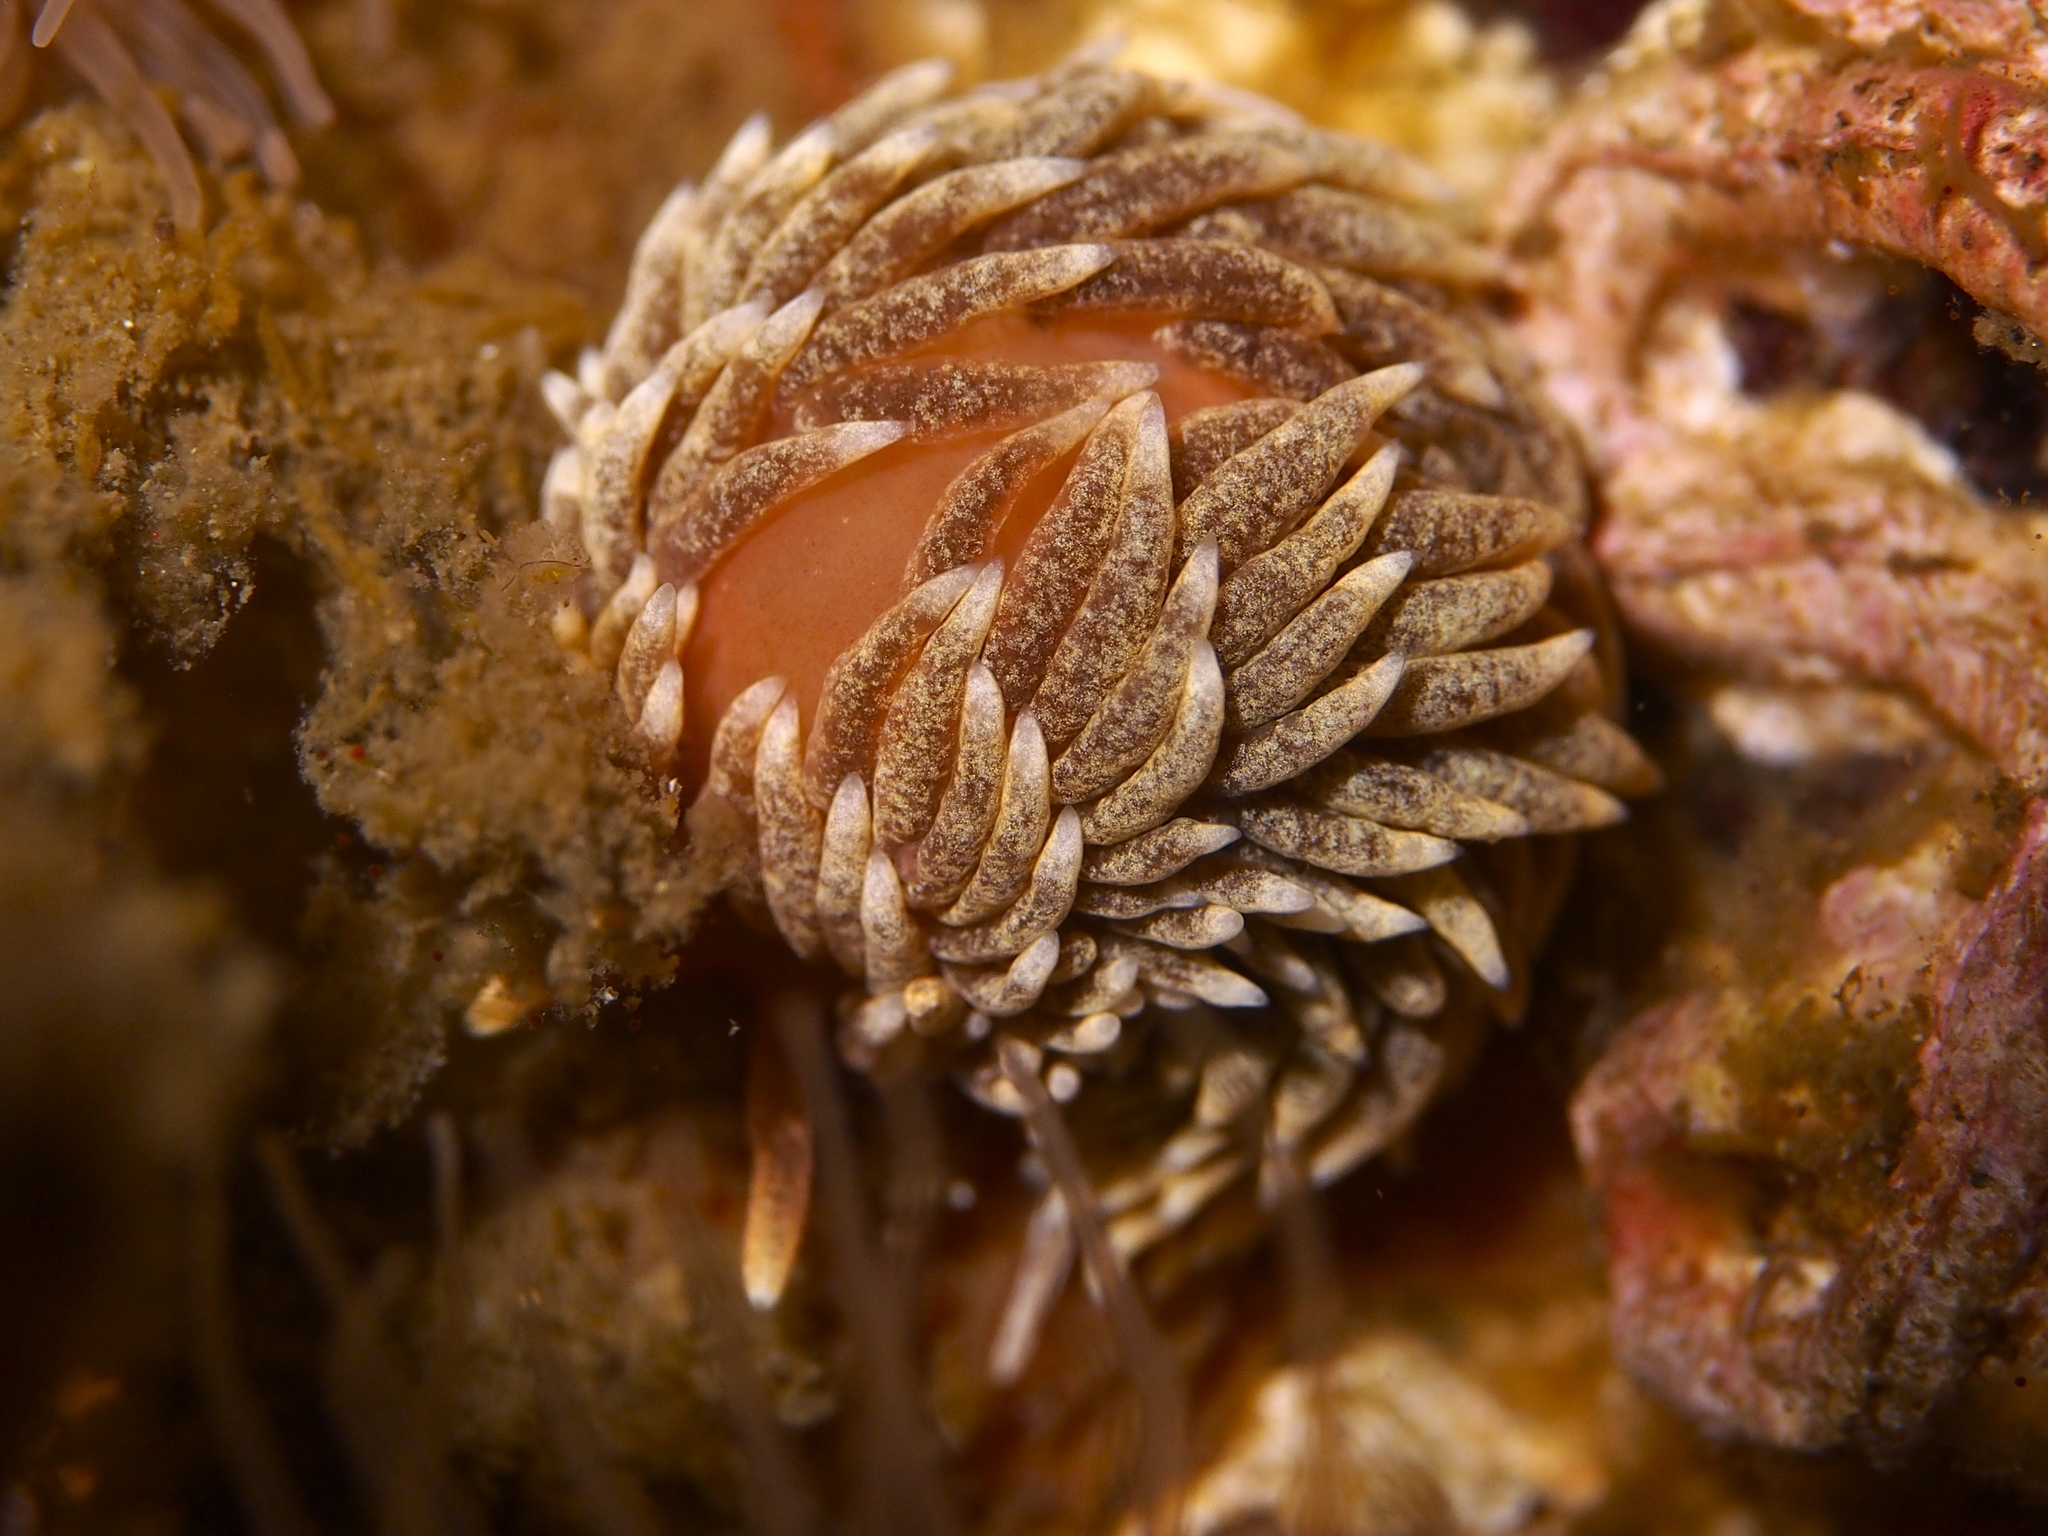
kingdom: Animalia
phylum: Mollusca
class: Gastropoda
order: Nudibranchia
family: Aeolidiidae
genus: Aeolidiella
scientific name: Aeolidiella glauca
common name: Orange-brown aeolid
